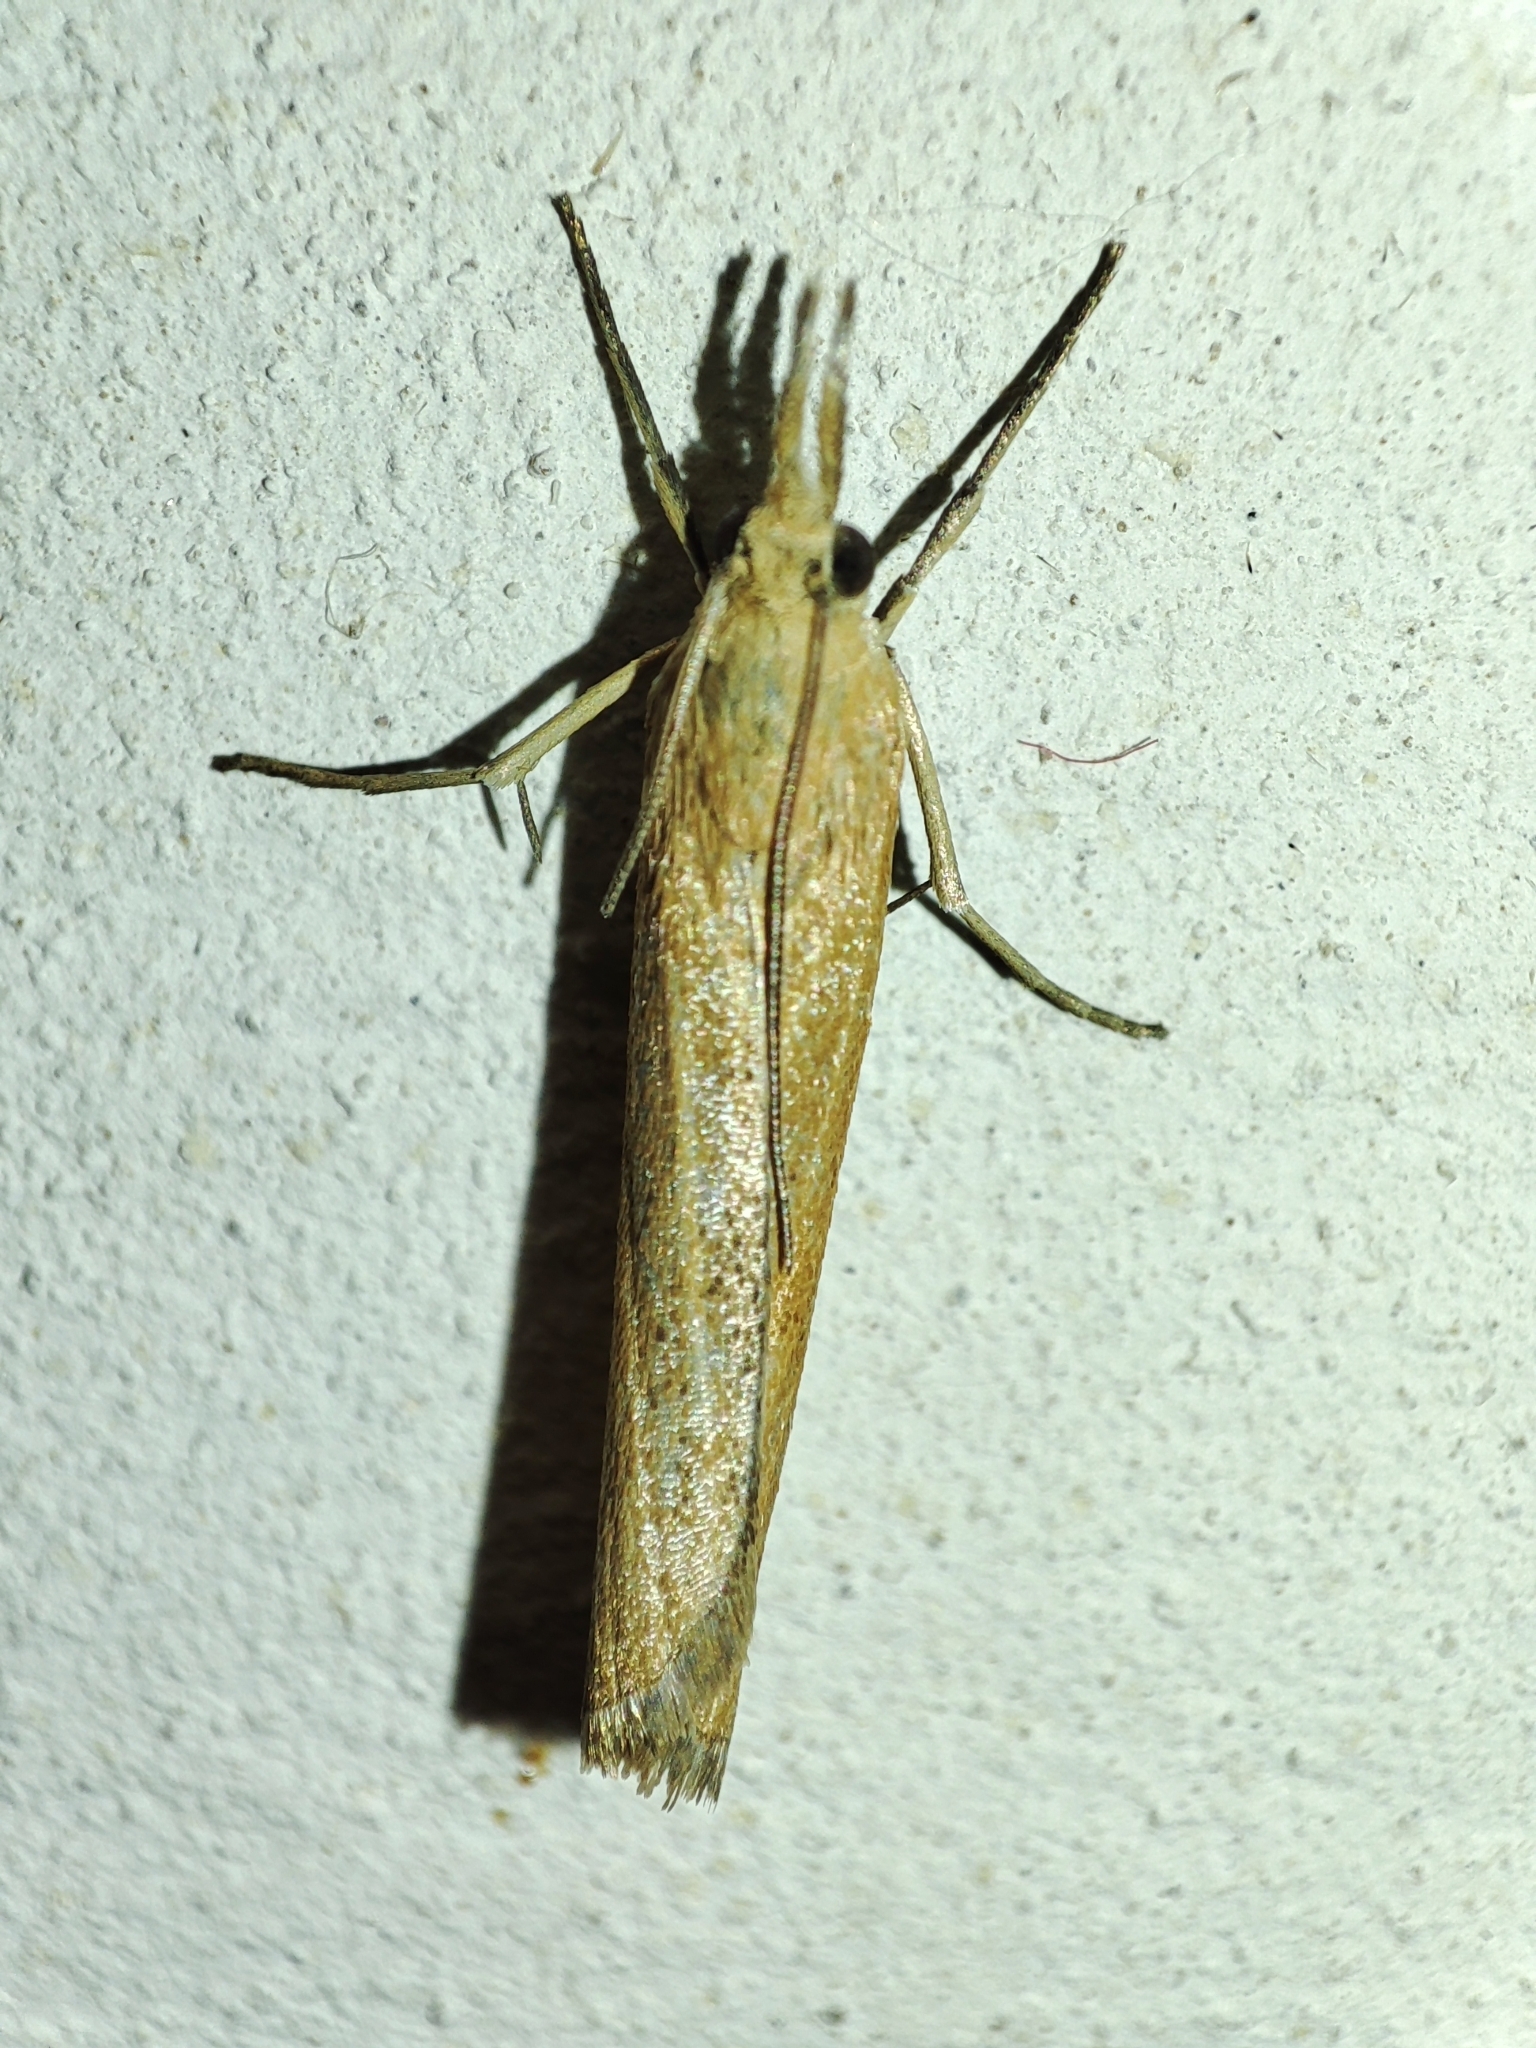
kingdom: Animalia
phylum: Arthropoda
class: Insecta
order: Lepidoptera
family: Crambidae
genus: Pediasia
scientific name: Pediasia luteella
